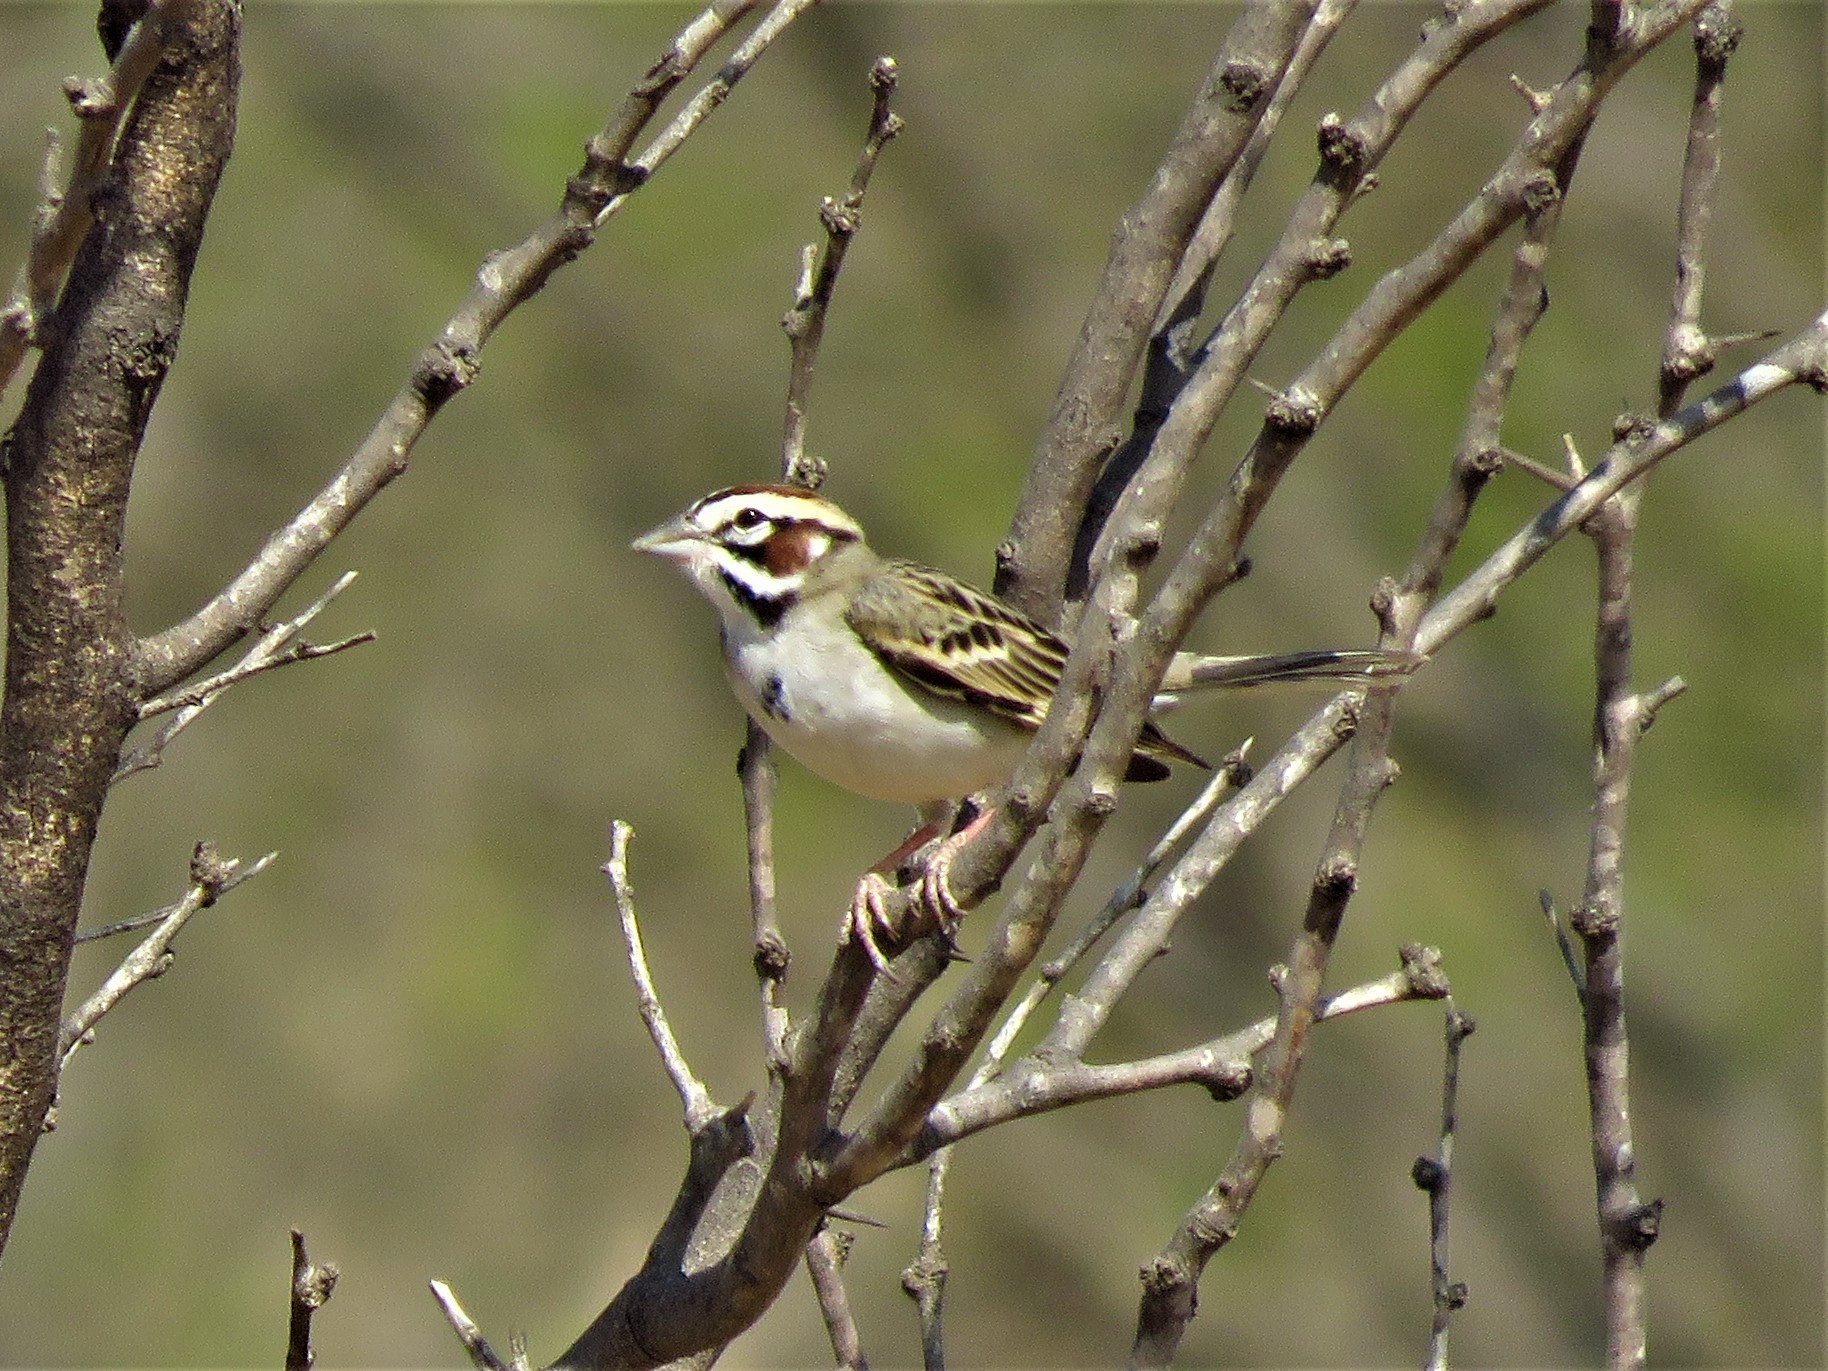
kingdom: Animalia
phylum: Chordata
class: Aves
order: Passeriformes
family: Passerellidae
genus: Chondestes
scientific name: Chondestes grammacus
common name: Lark sparrow
